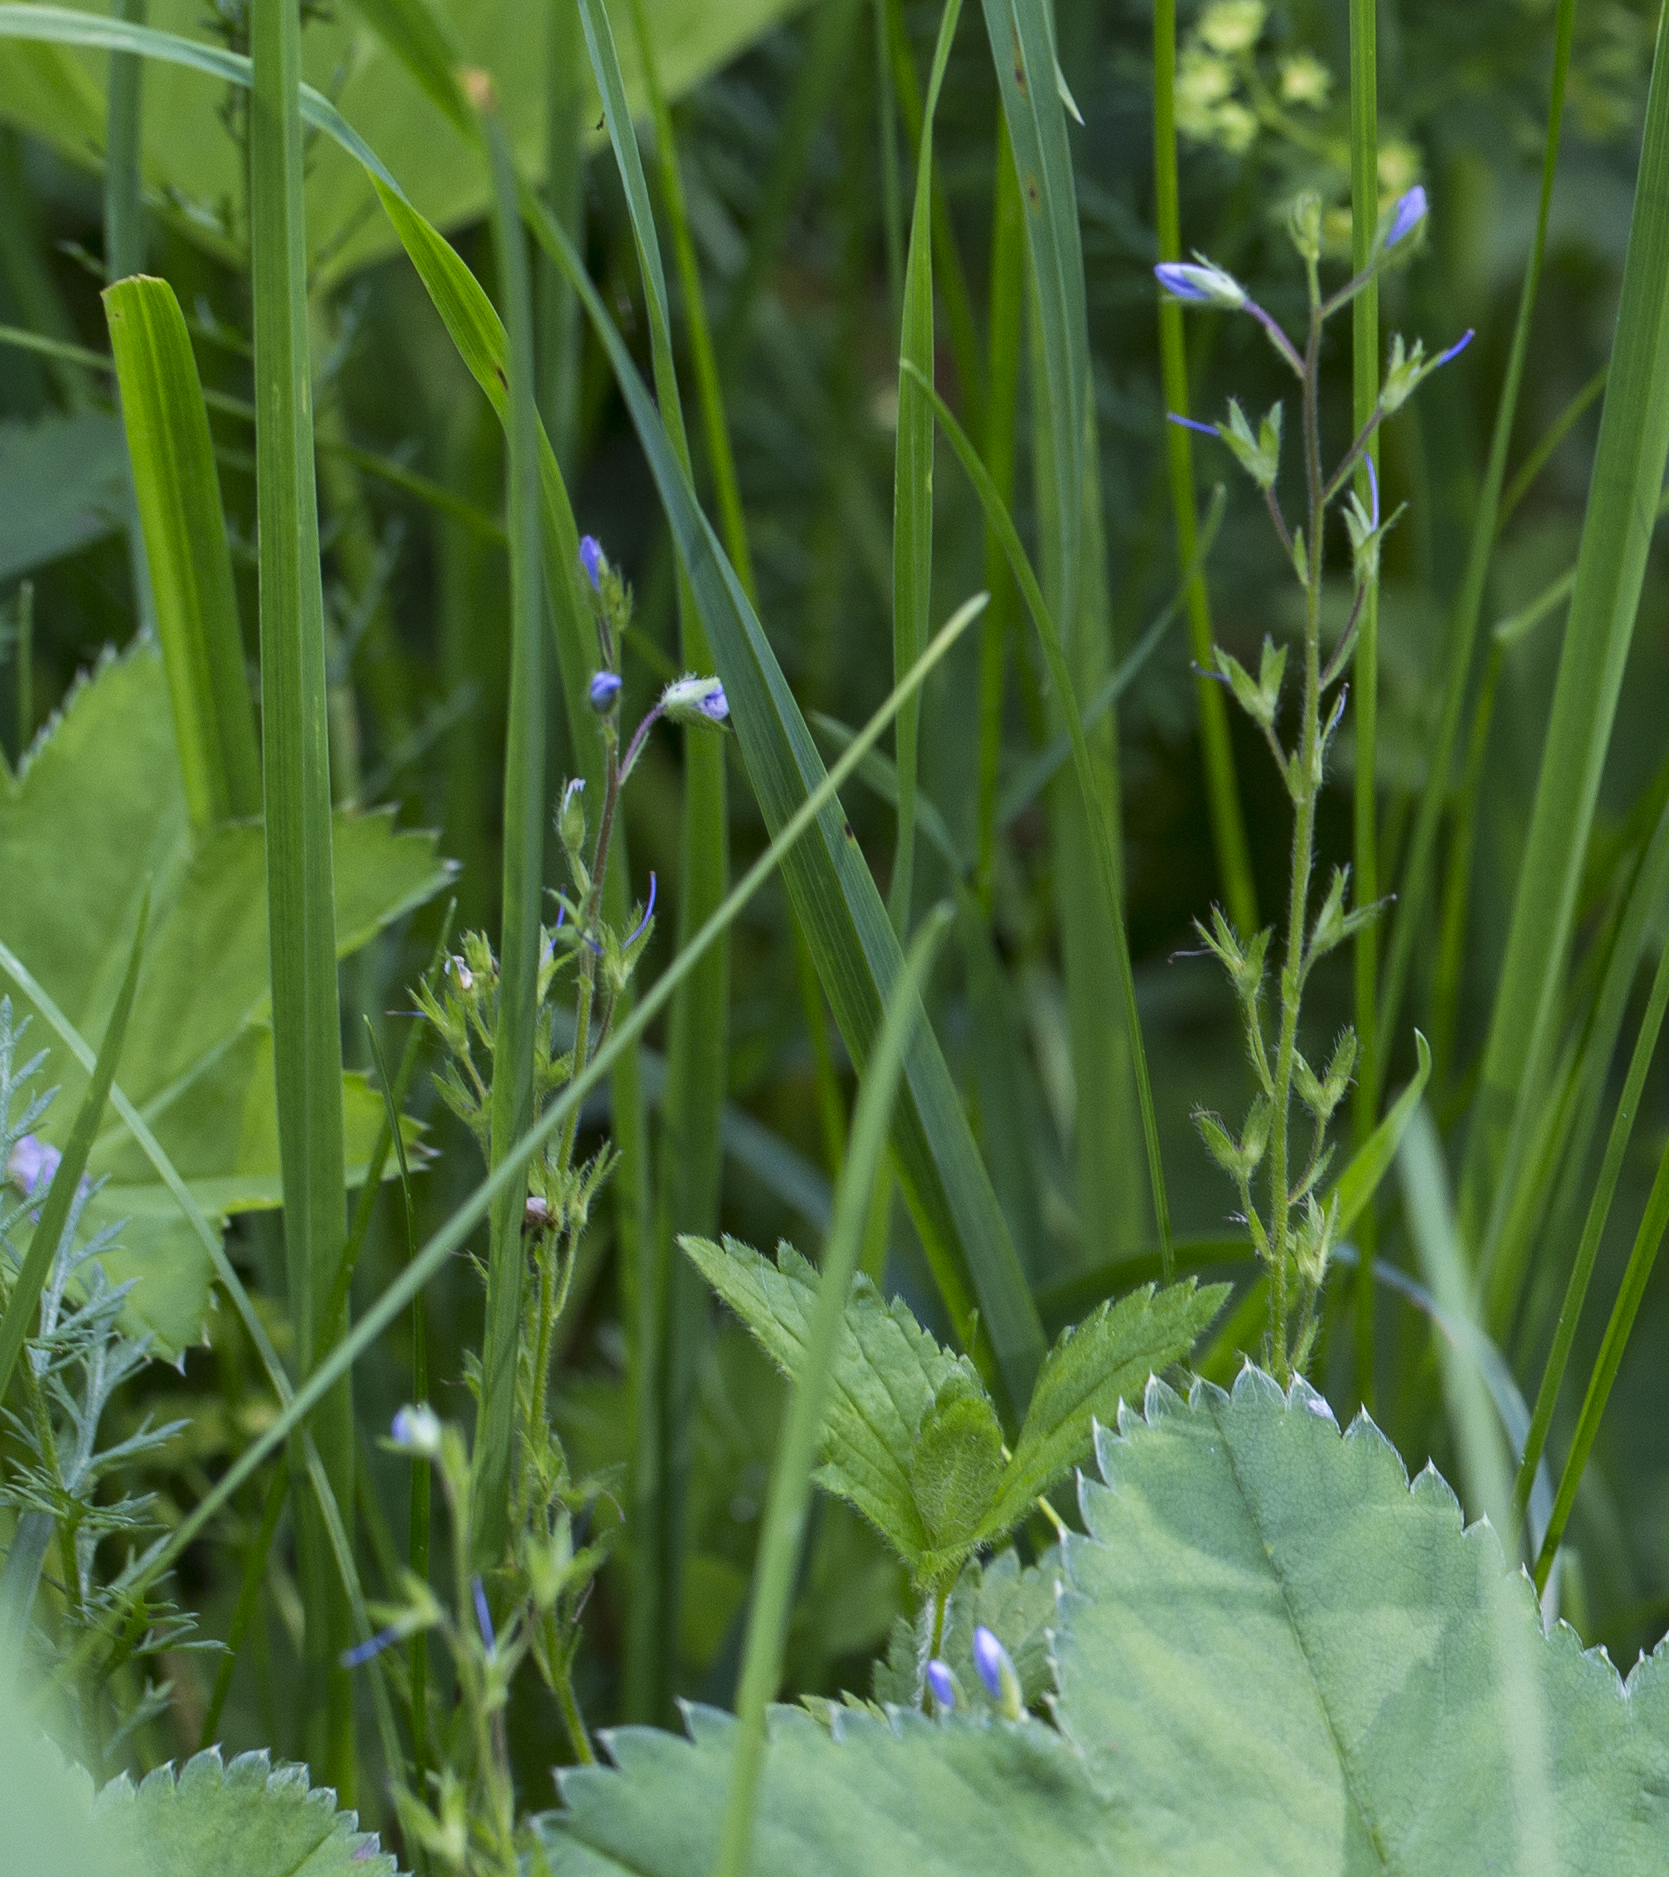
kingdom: Plantae
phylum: Tracheophyta
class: Magnoliopsida
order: Lamiales
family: Plantaginaceae
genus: Veronica
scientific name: Veronica chamaedrys
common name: Germander speedwell
